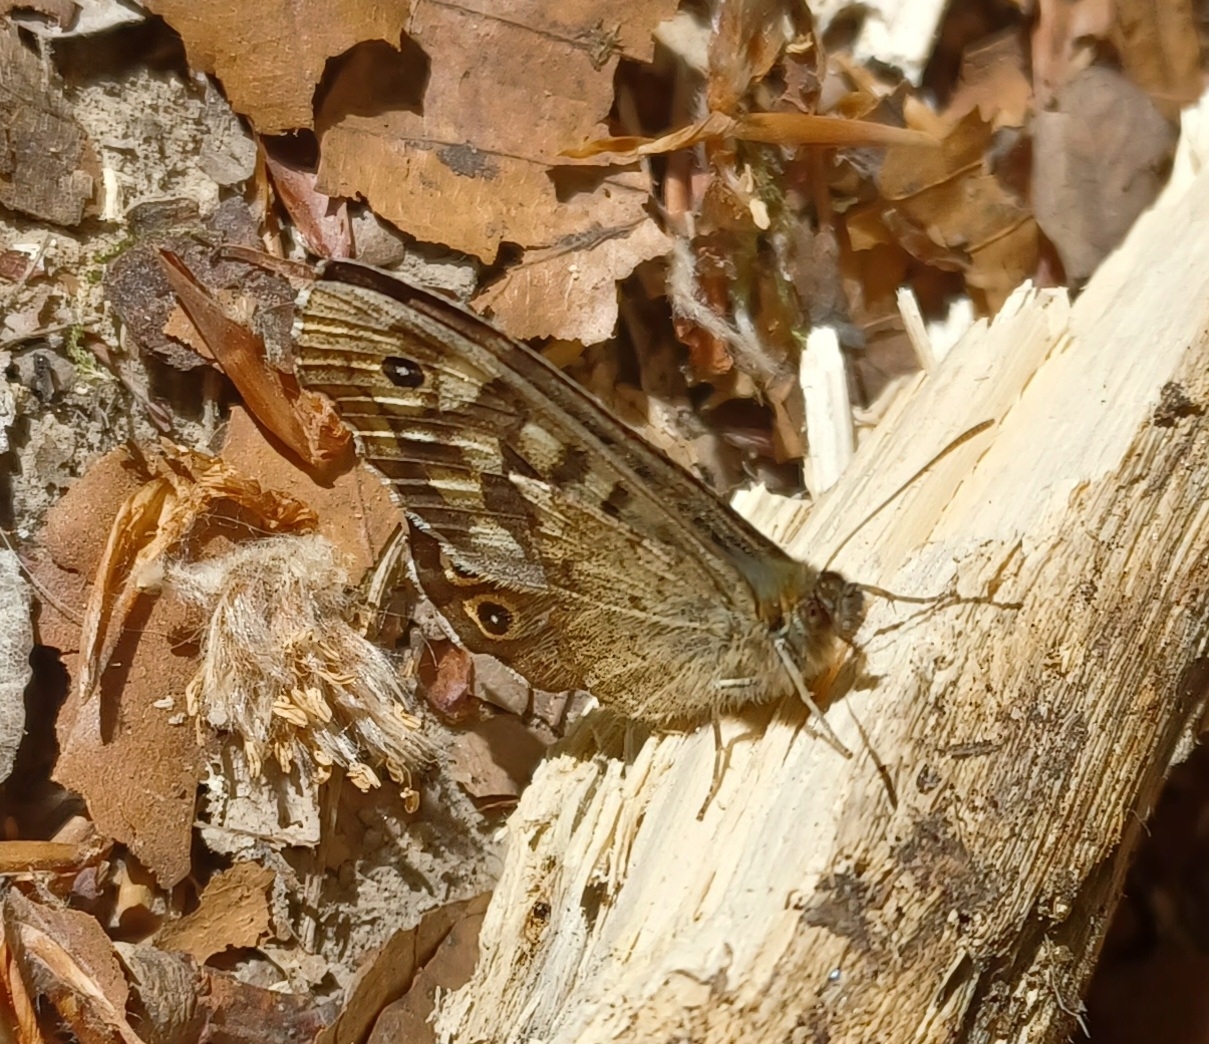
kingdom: Animalia
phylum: Arthropoda
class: Insecta
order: Lepidoptera
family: Nymphalidae
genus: Pararge
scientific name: Pararge aegeria
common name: Speckled wood
